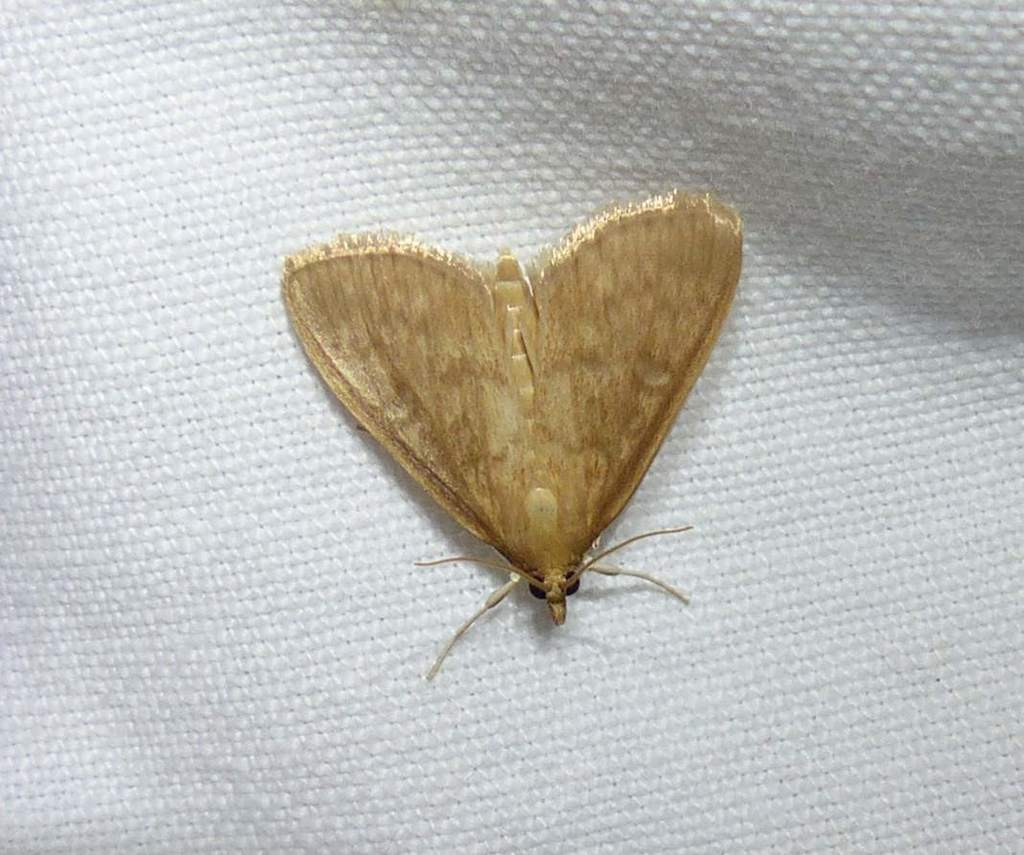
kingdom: Animalia
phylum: Arthropoda
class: Insecta
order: Lepidoptera
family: Crambidae
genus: Anania
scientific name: Anania Framinghamia helvalis
